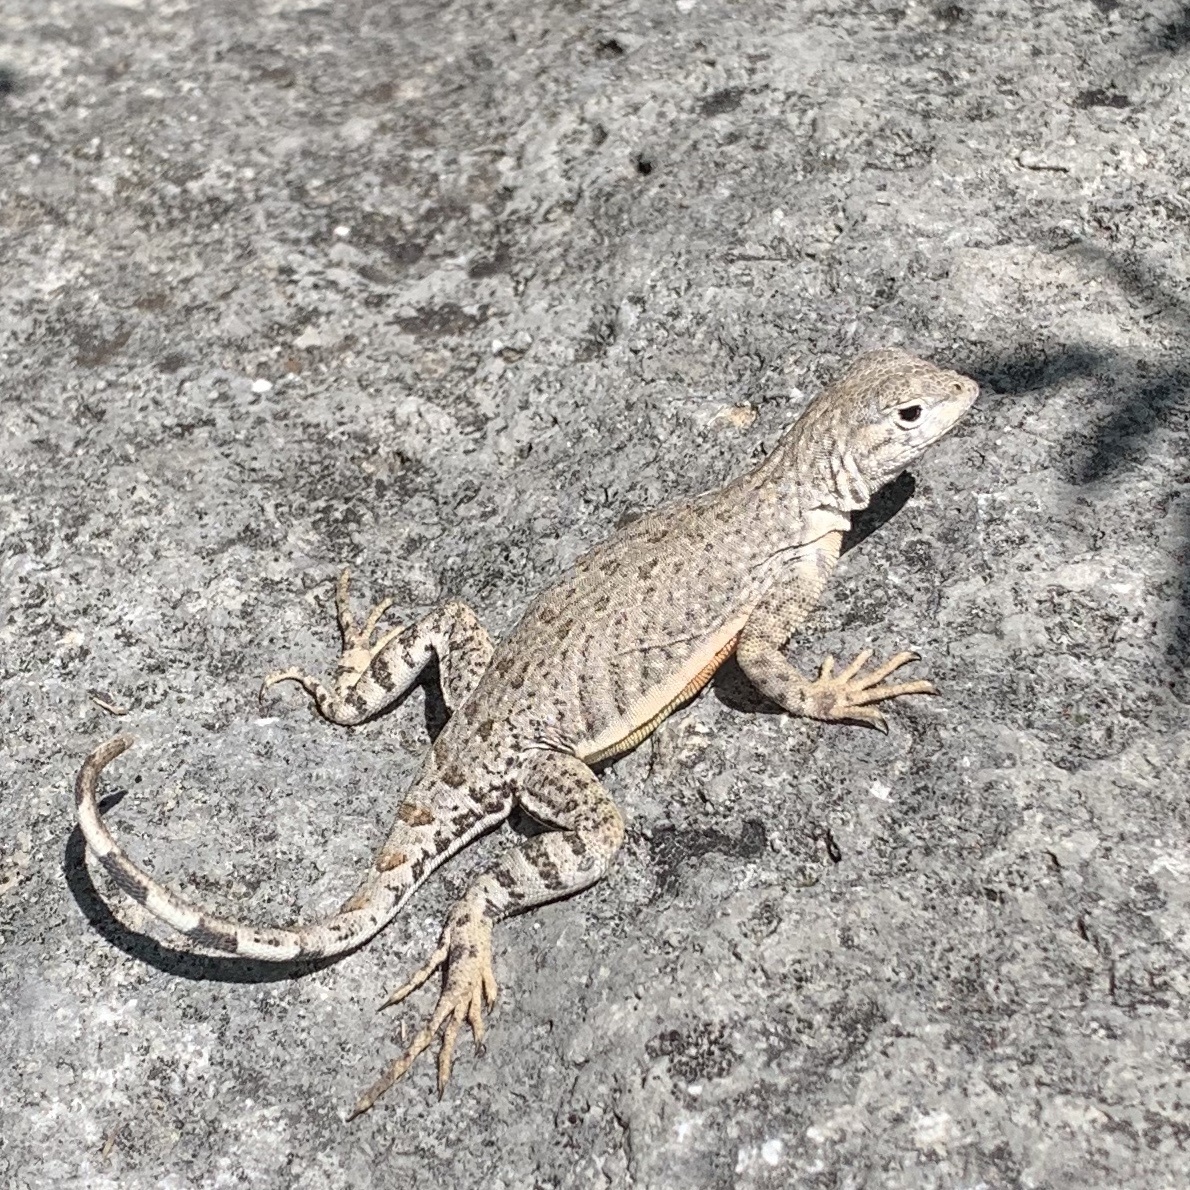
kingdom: Animalia
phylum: Chordata
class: Squamata
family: Phrynosomatidae
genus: Cophosaurus
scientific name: Cophosaurus texanus
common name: Greater earless lizard
